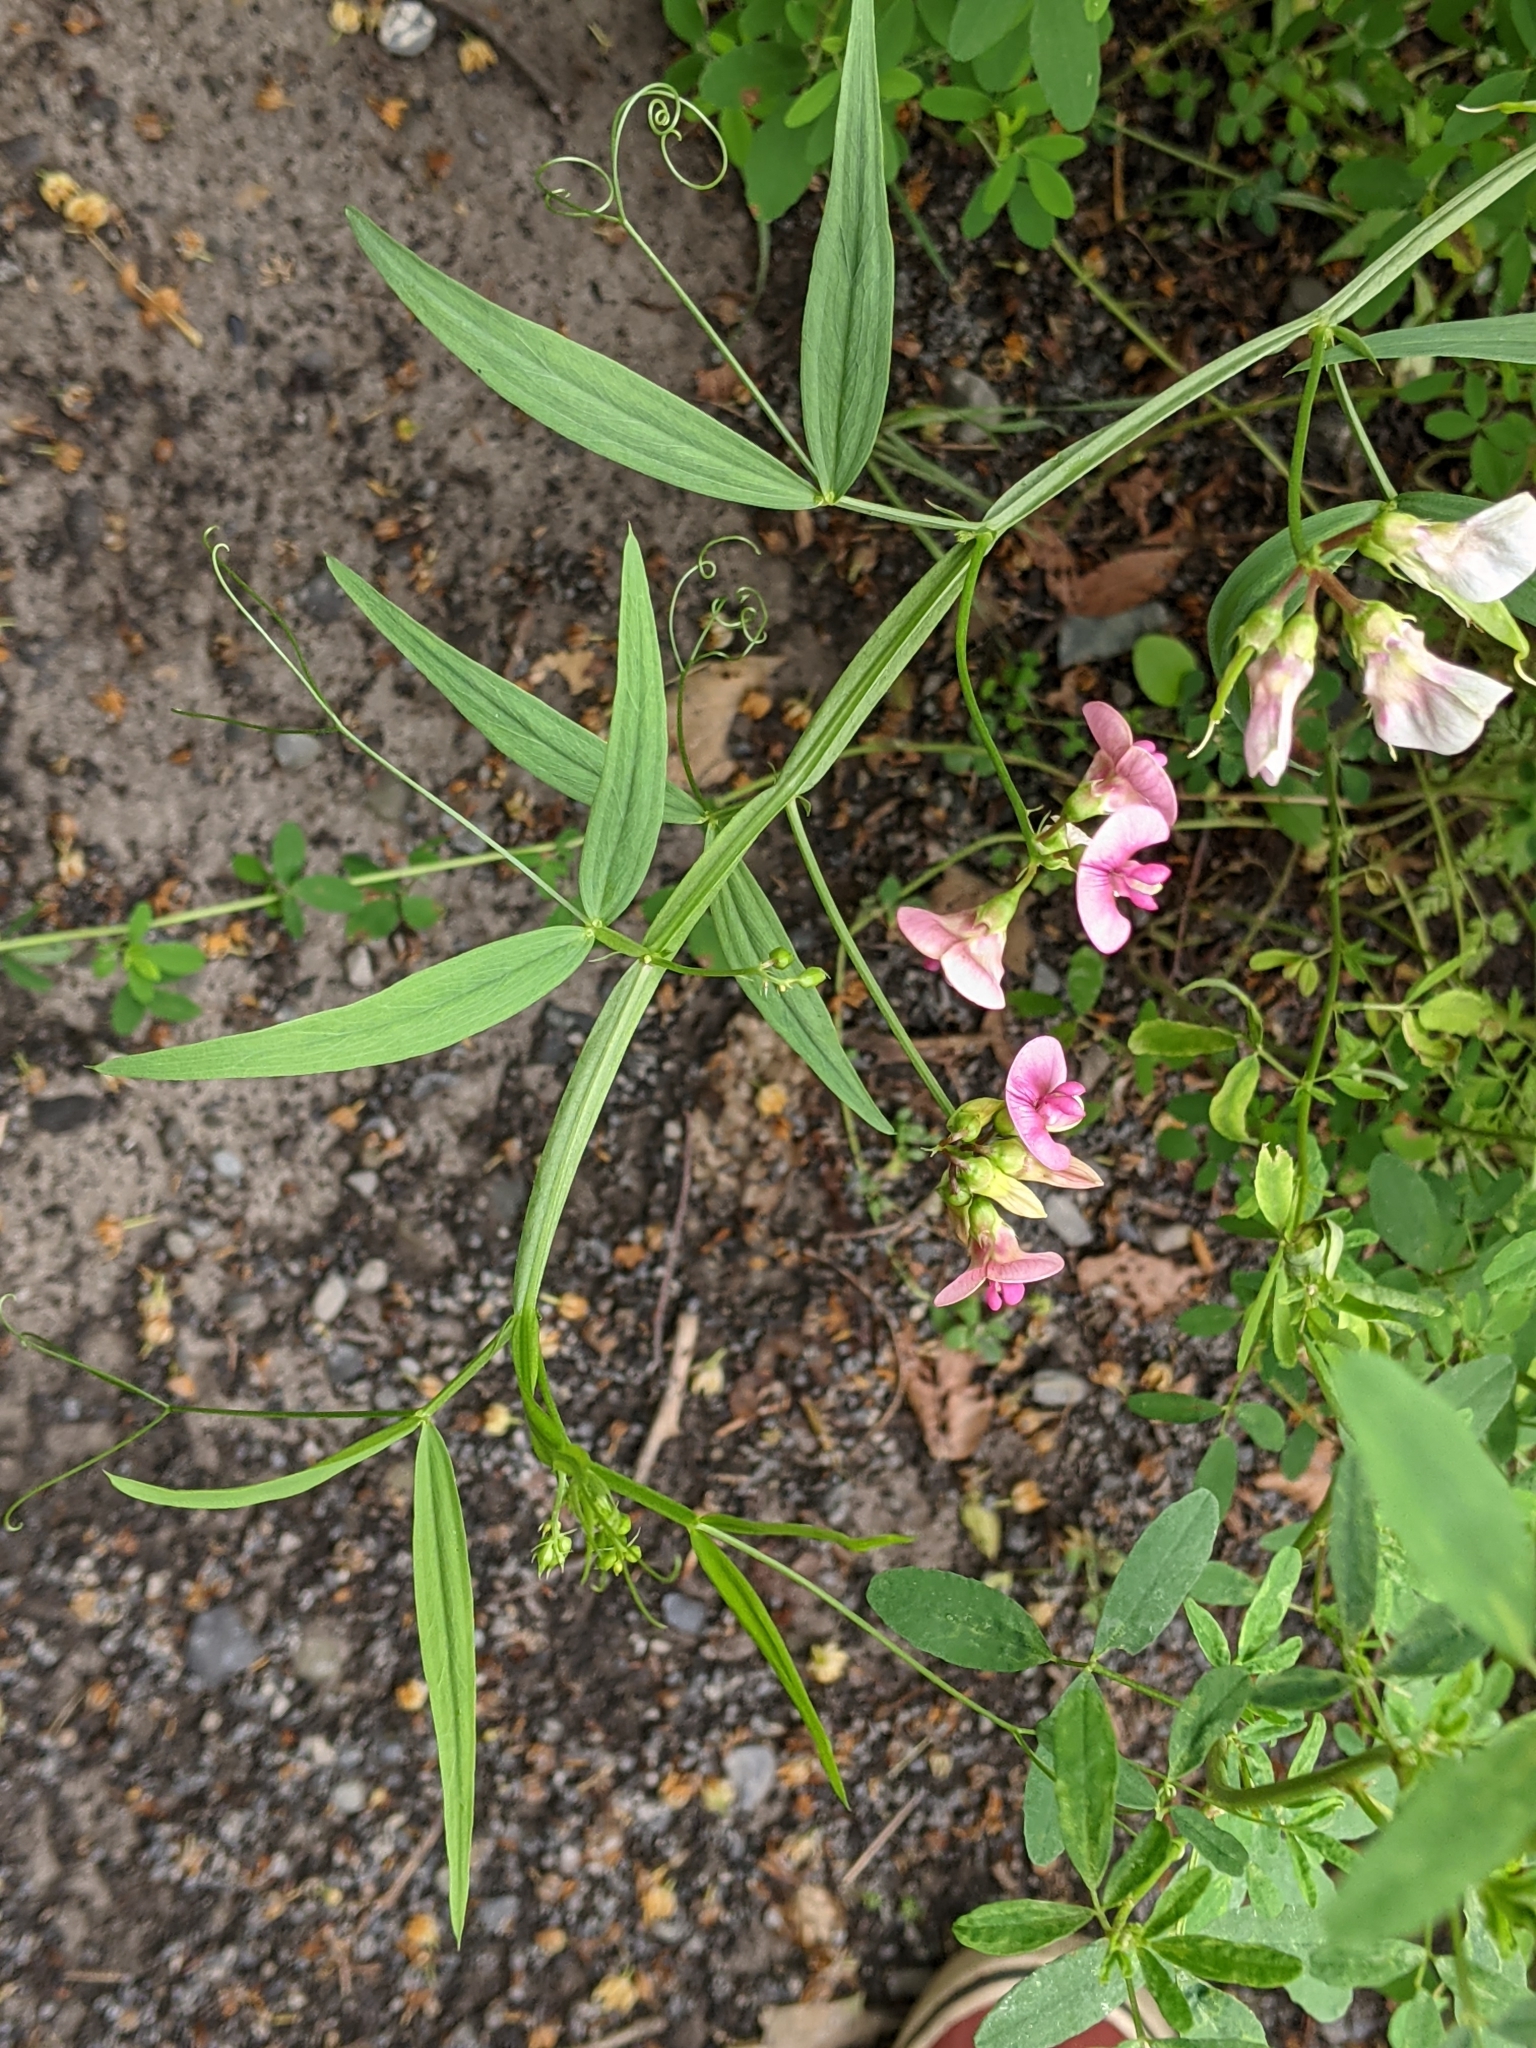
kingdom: Plantae
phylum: Tracheophyta
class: Magnoliopsida
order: Fabales
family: Fabaceae
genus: Lathyrus
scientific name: Lathyrus sylvestris
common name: Flat pea
